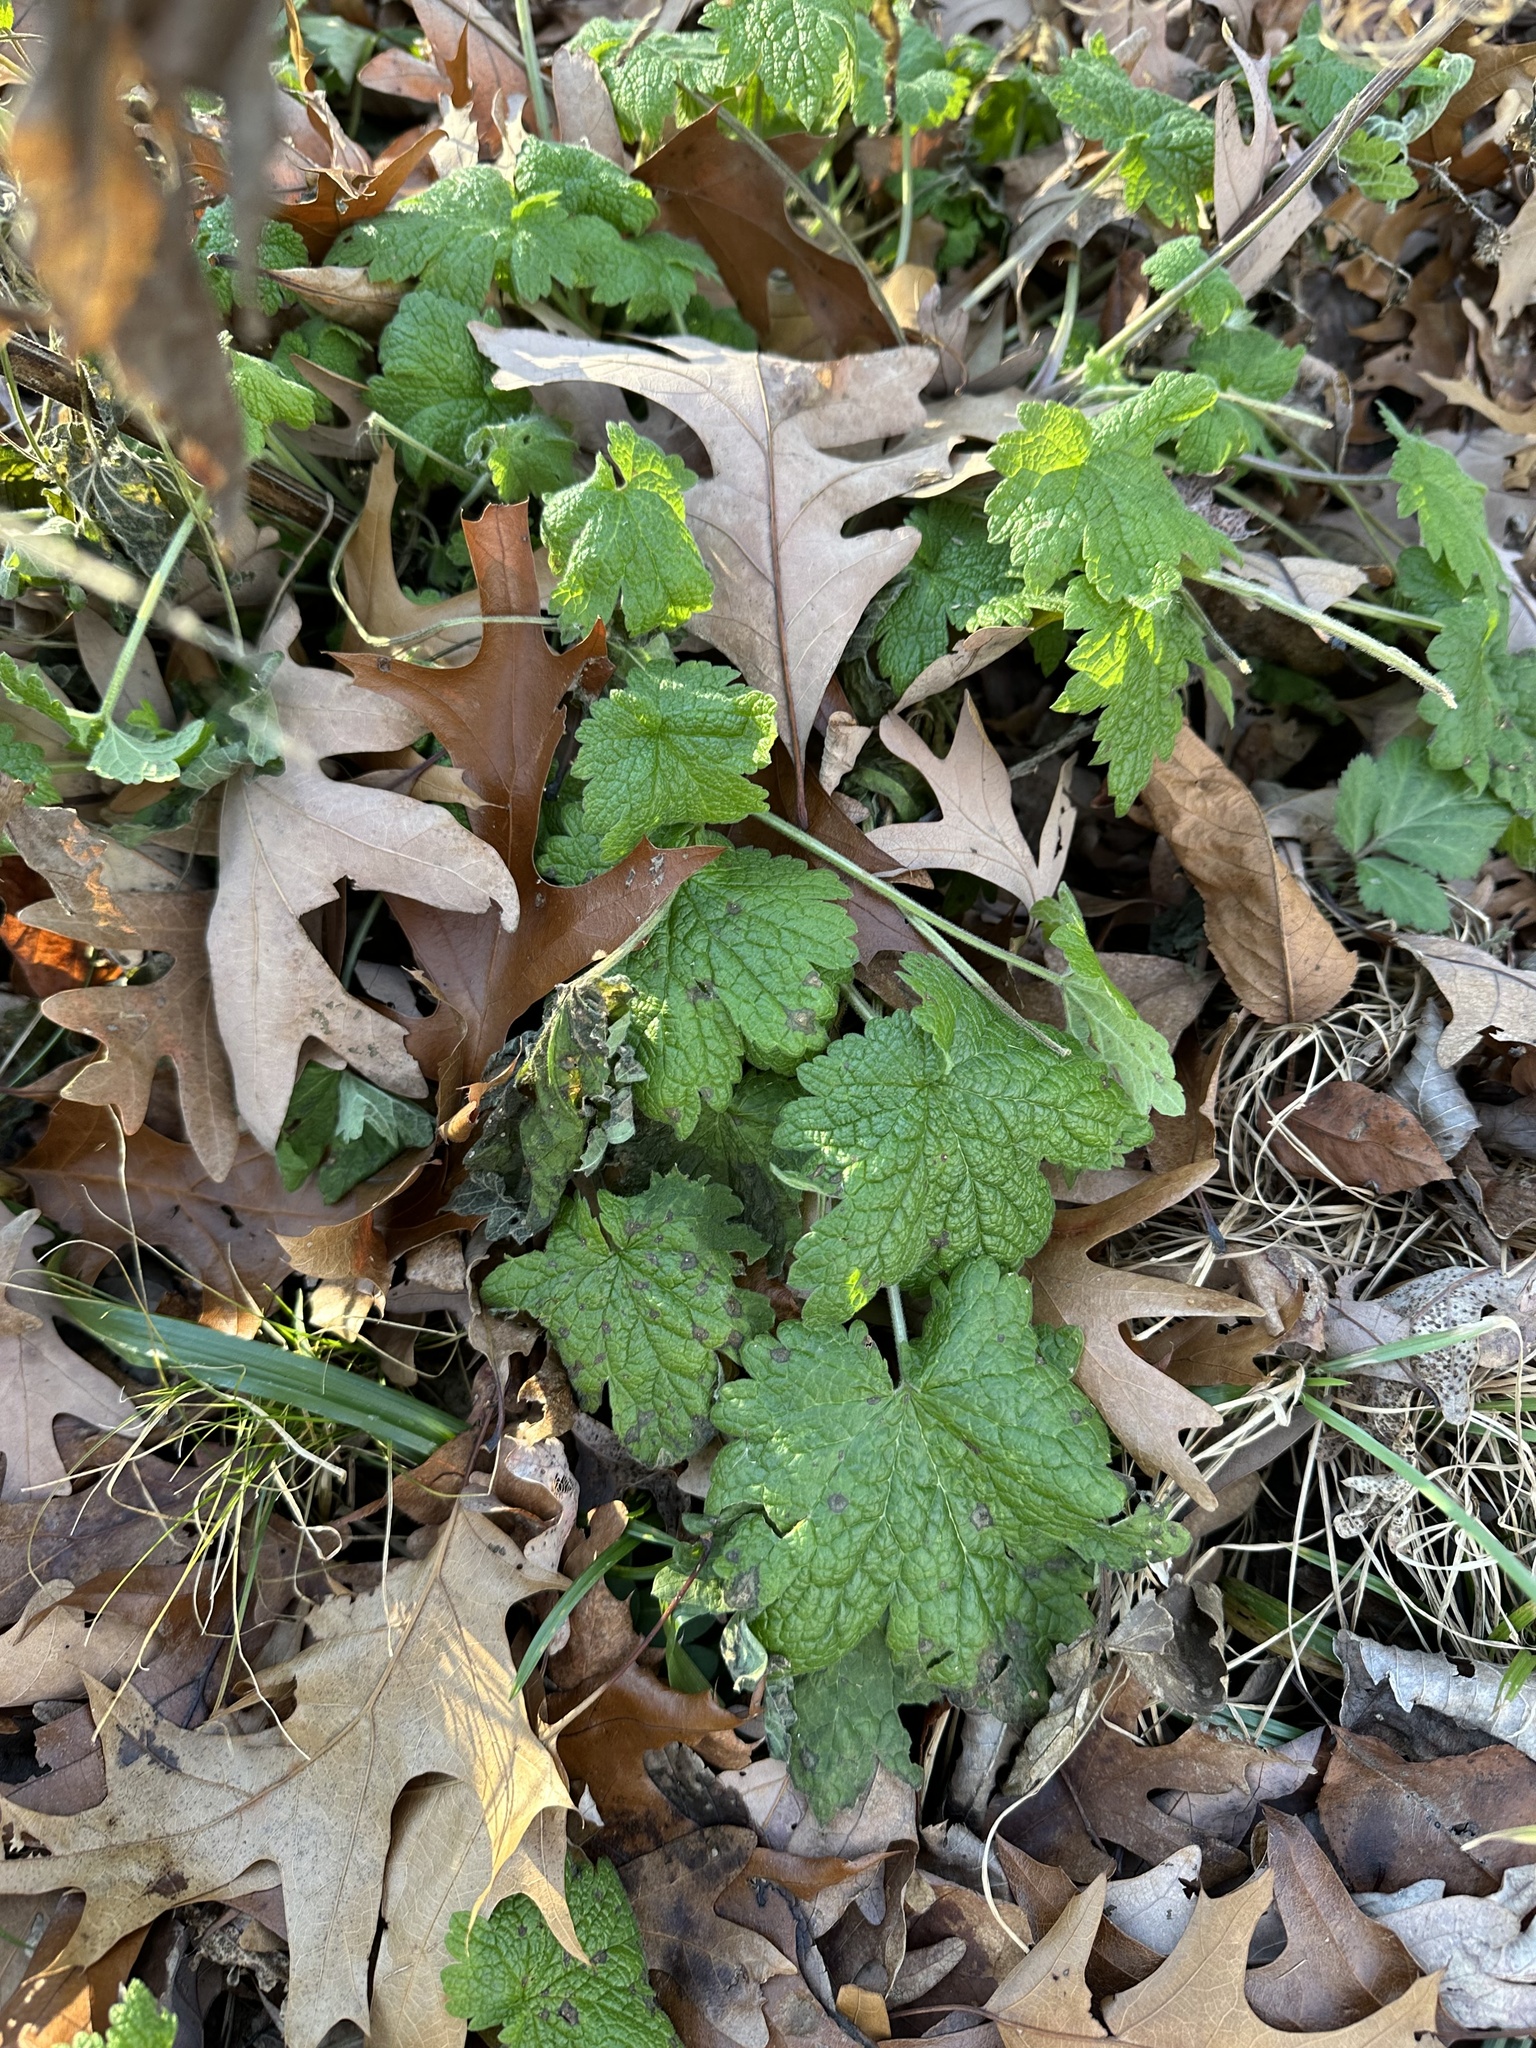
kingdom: Plantae
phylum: Tracheophyta
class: Magnoliopsida
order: Lamiales
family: Lamiaceae
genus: Leonurus
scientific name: Leonurus cardiaca
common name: Motherwort
